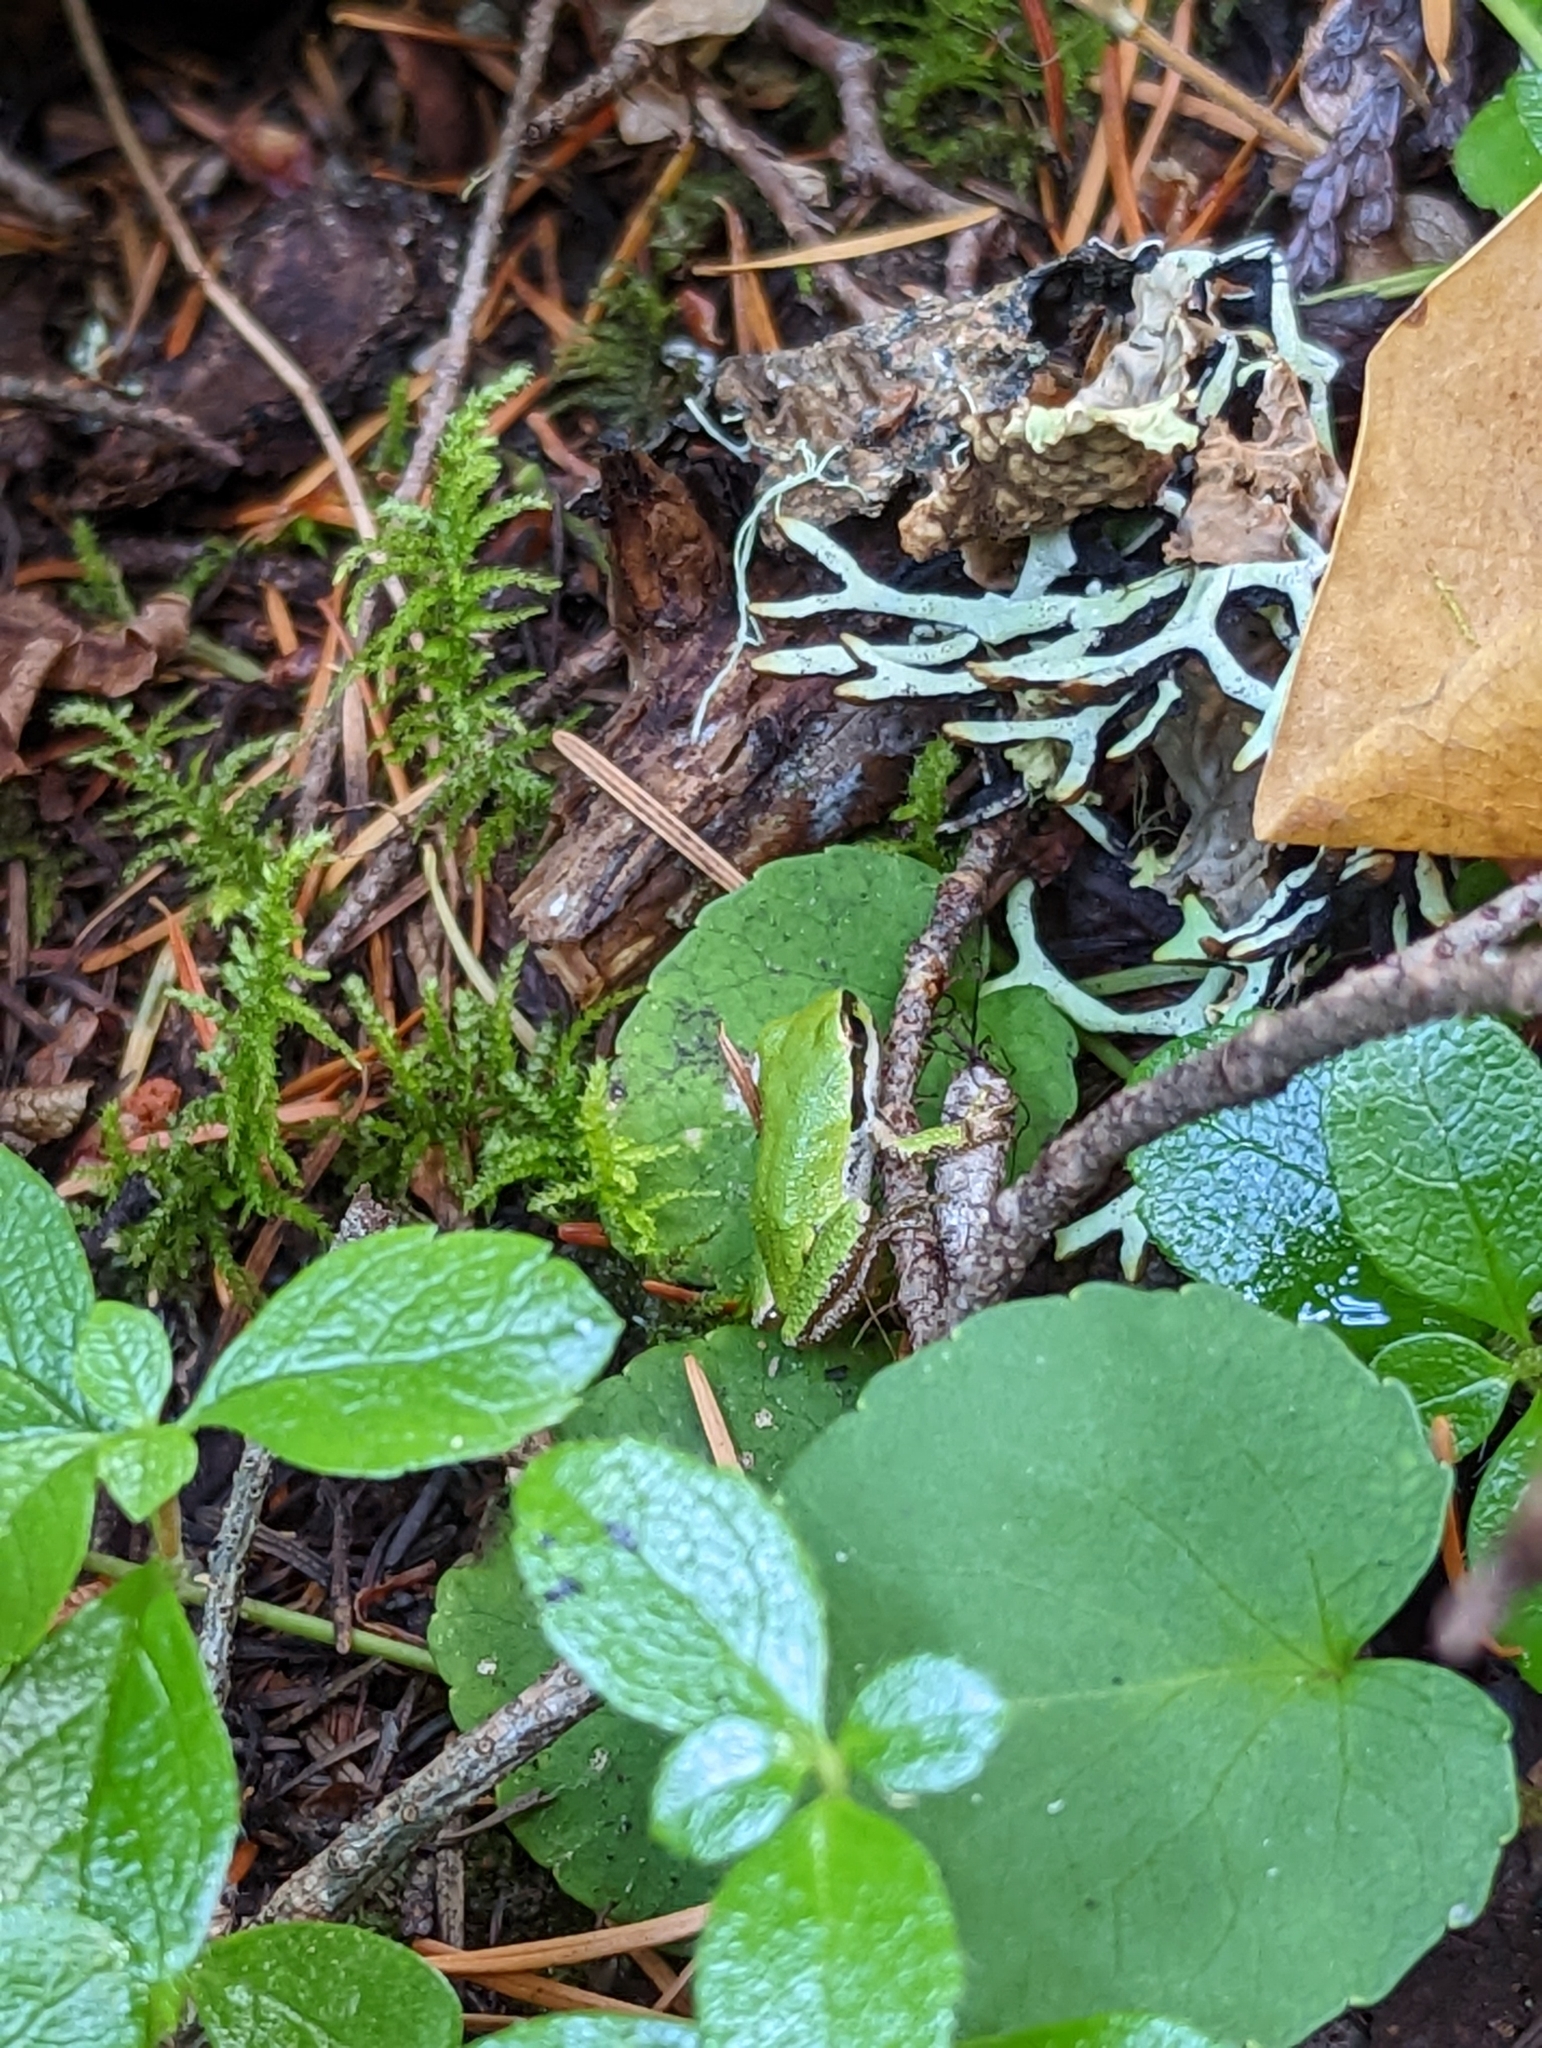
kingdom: Animalia
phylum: Chordata
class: Amphibia
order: Anura
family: Hylidae
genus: Pseudacris
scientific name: Pseudacris regilla
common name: Pacific chorus frog
